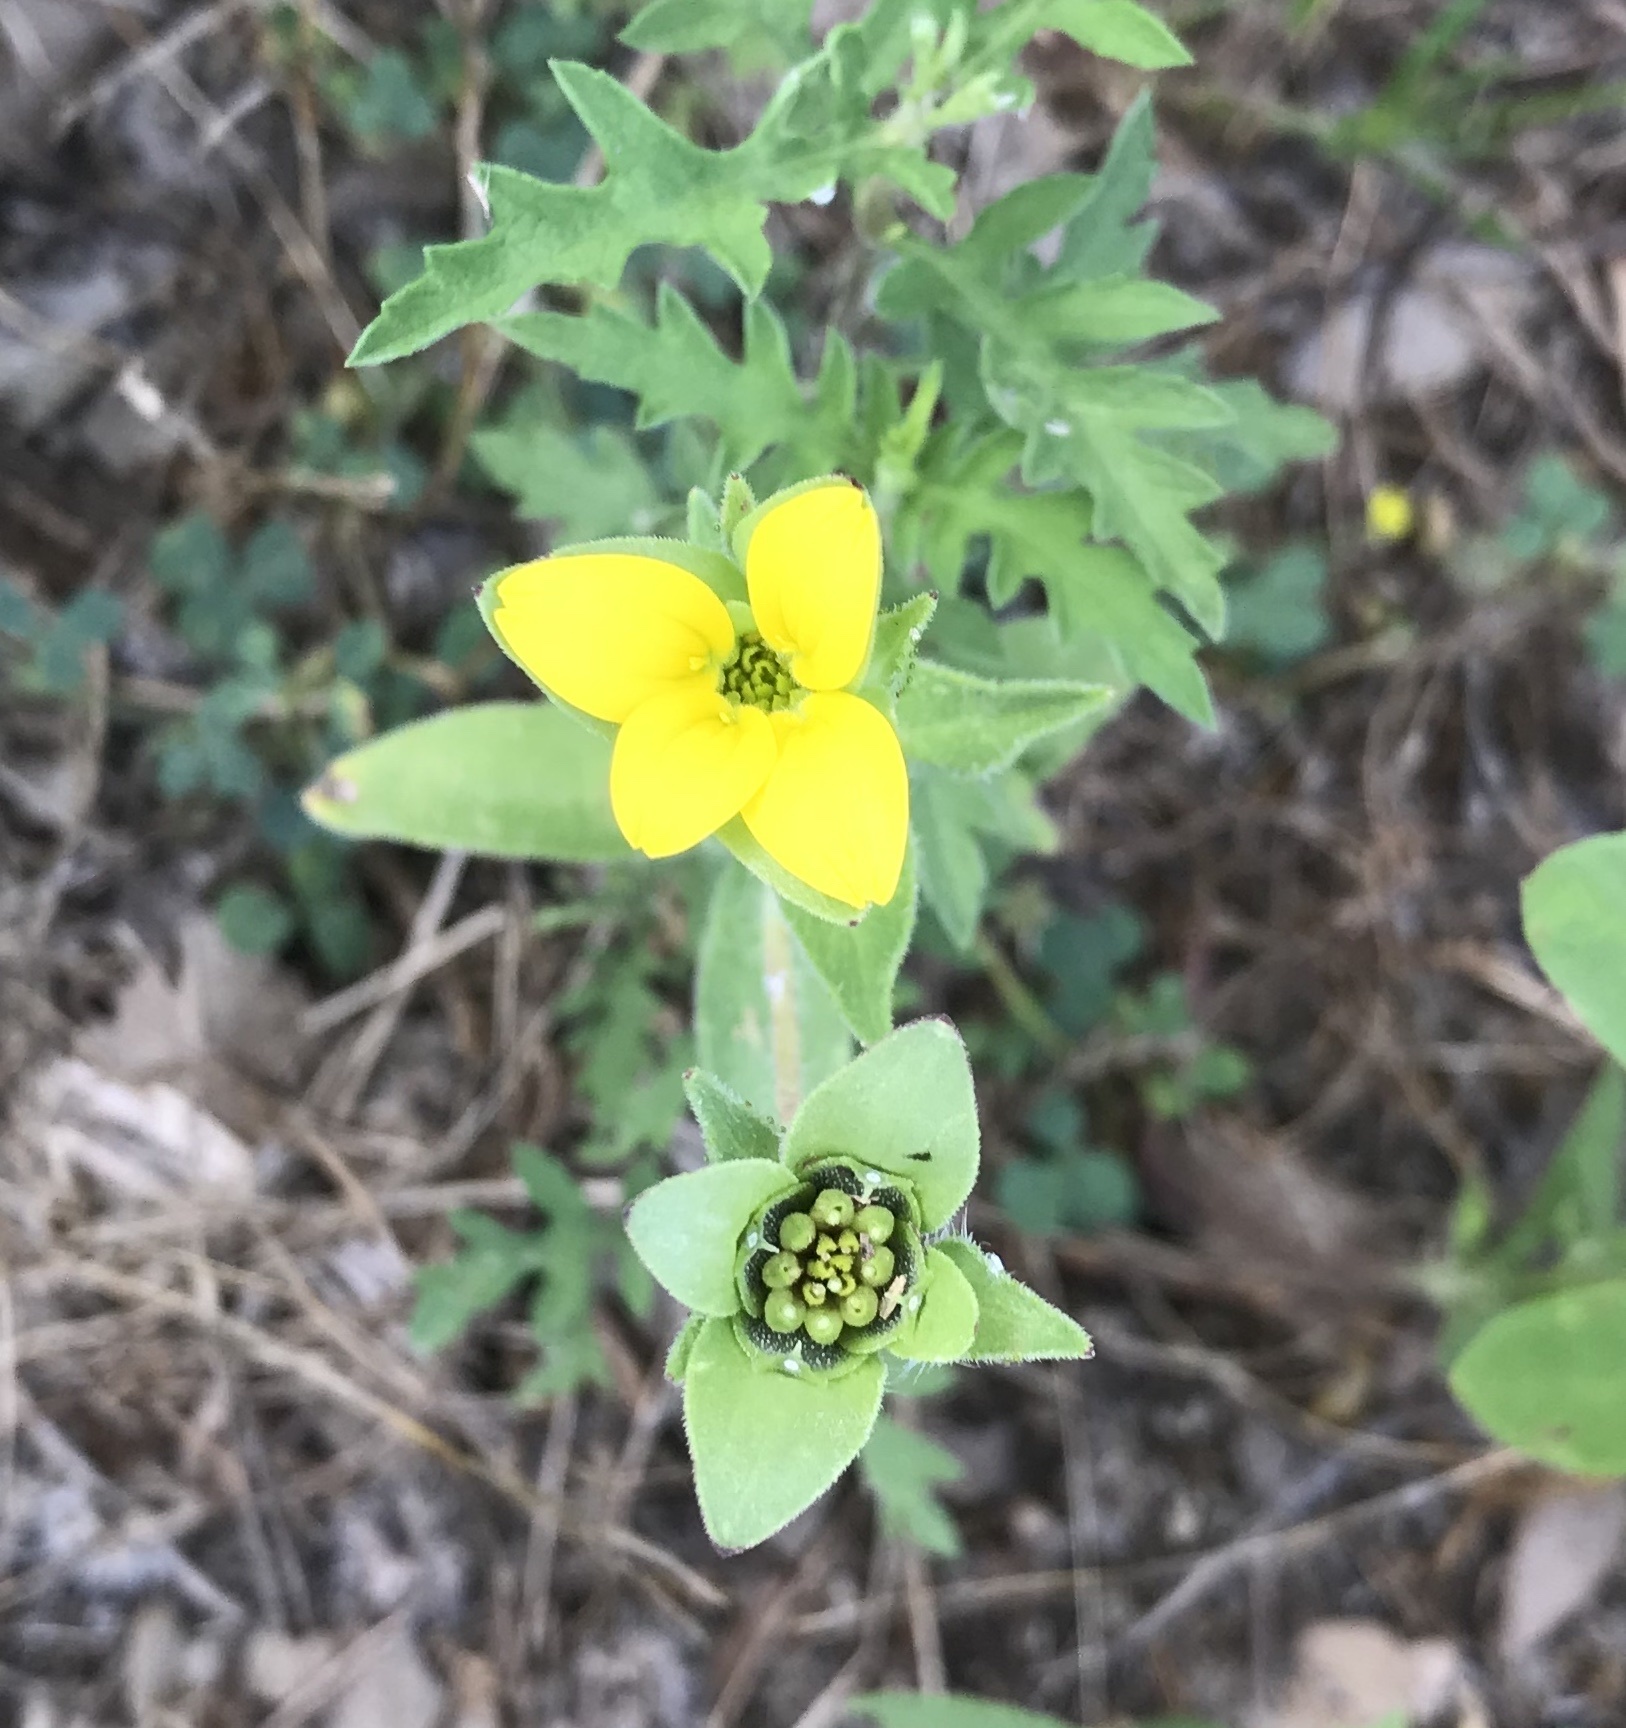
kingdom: Plantae
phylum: Tracheophyta
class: Magnoliopsida
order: Asterales
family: Asteraceae
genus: Lindheimera
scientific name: Lindheimera texana
